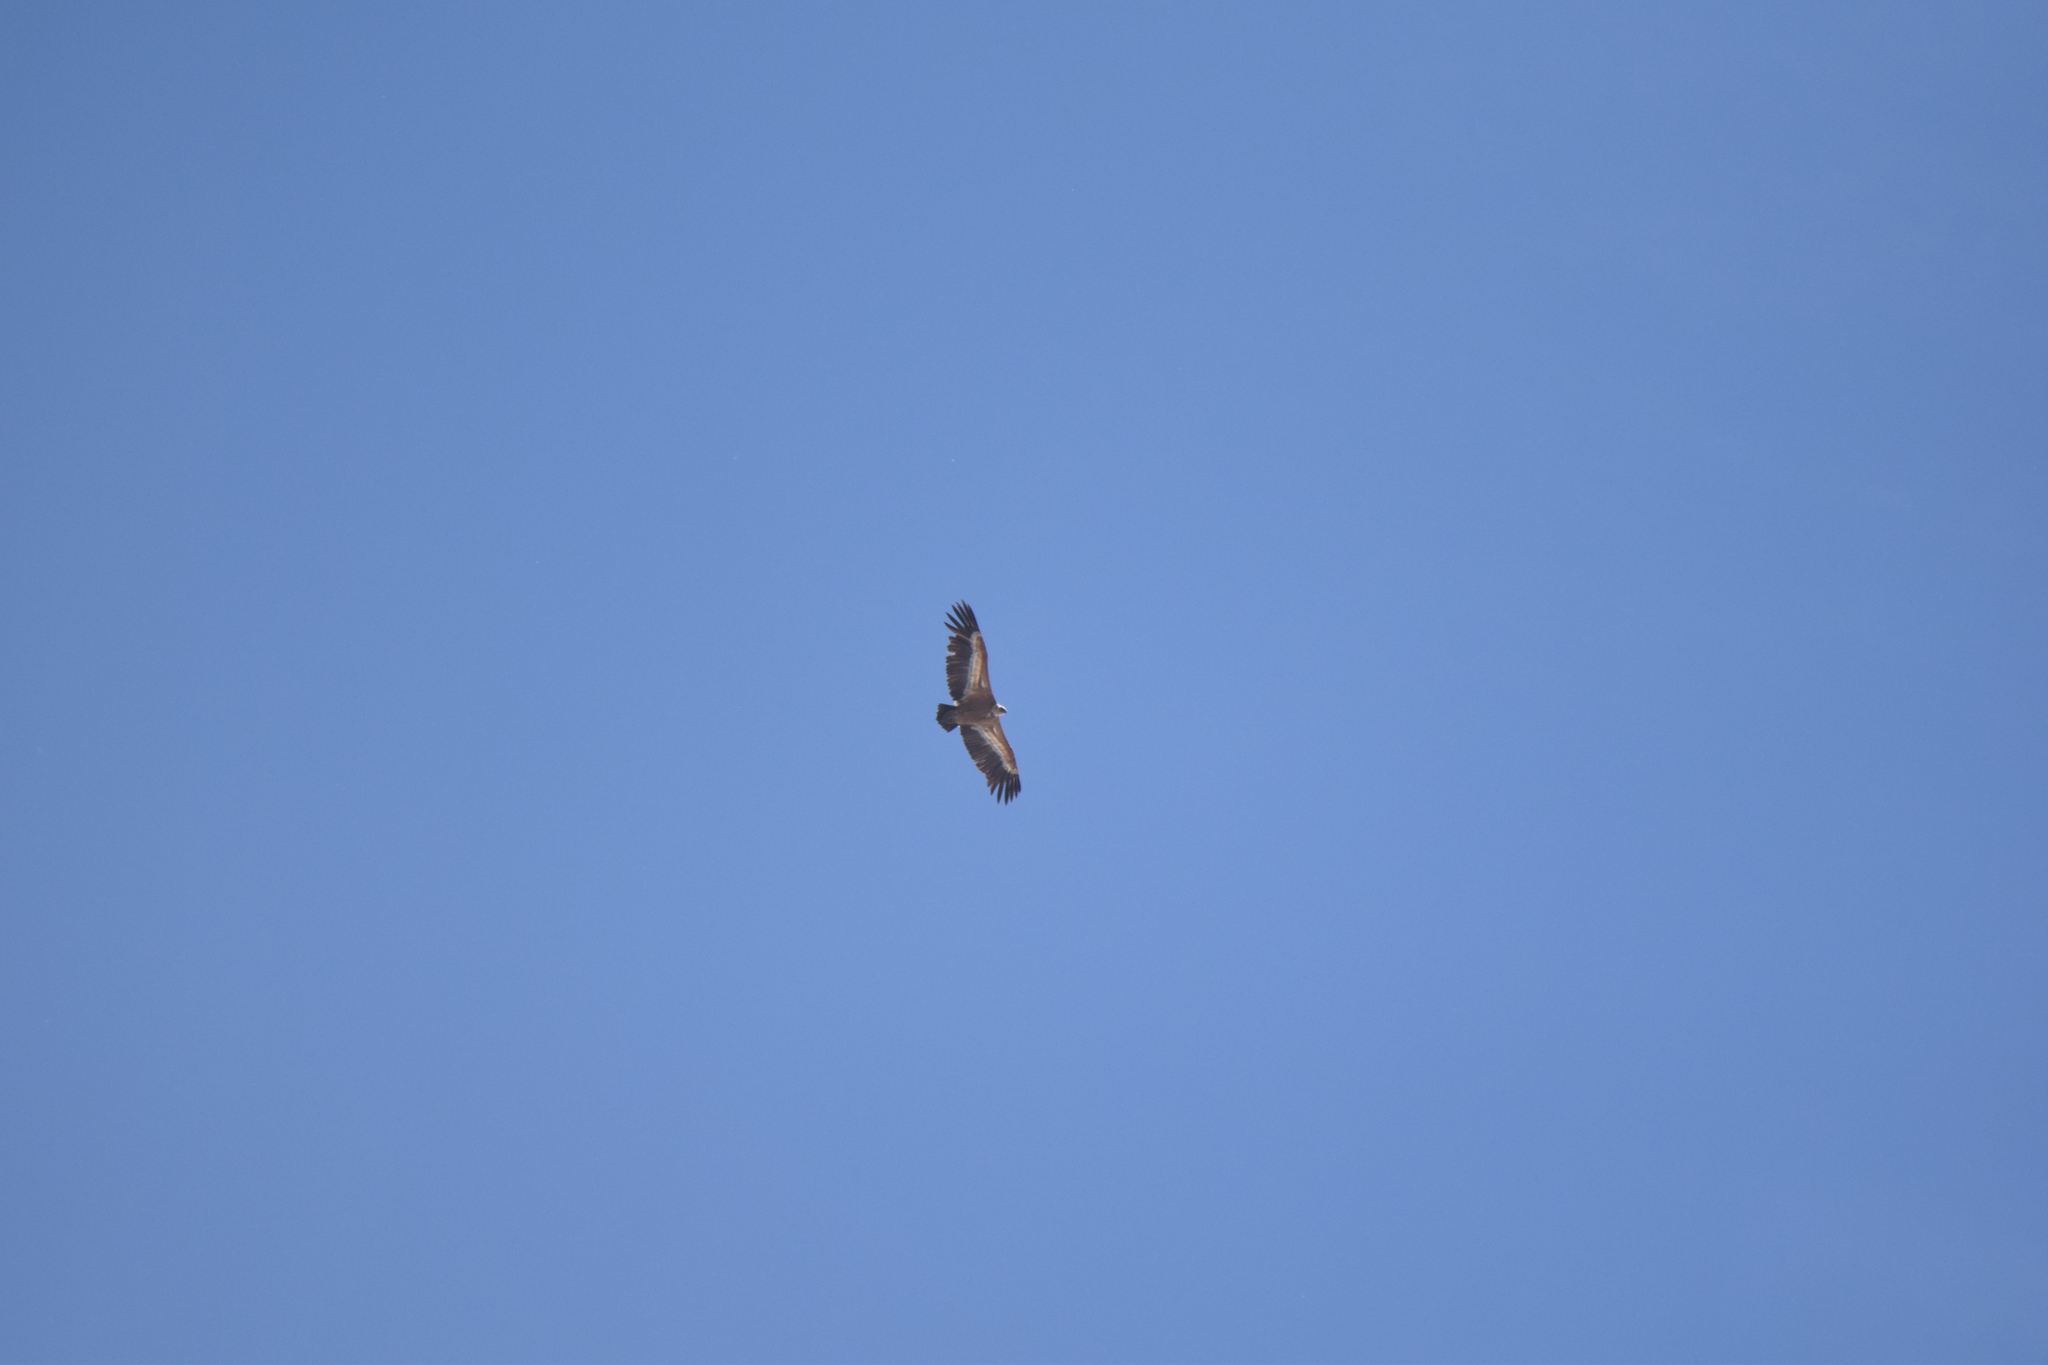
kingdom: Animalia
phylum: Chordata
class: Aves
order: Accipitriformes
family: Accipitridae
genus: Gyps
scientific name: Gyps fulvus
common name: Griffon vulture
